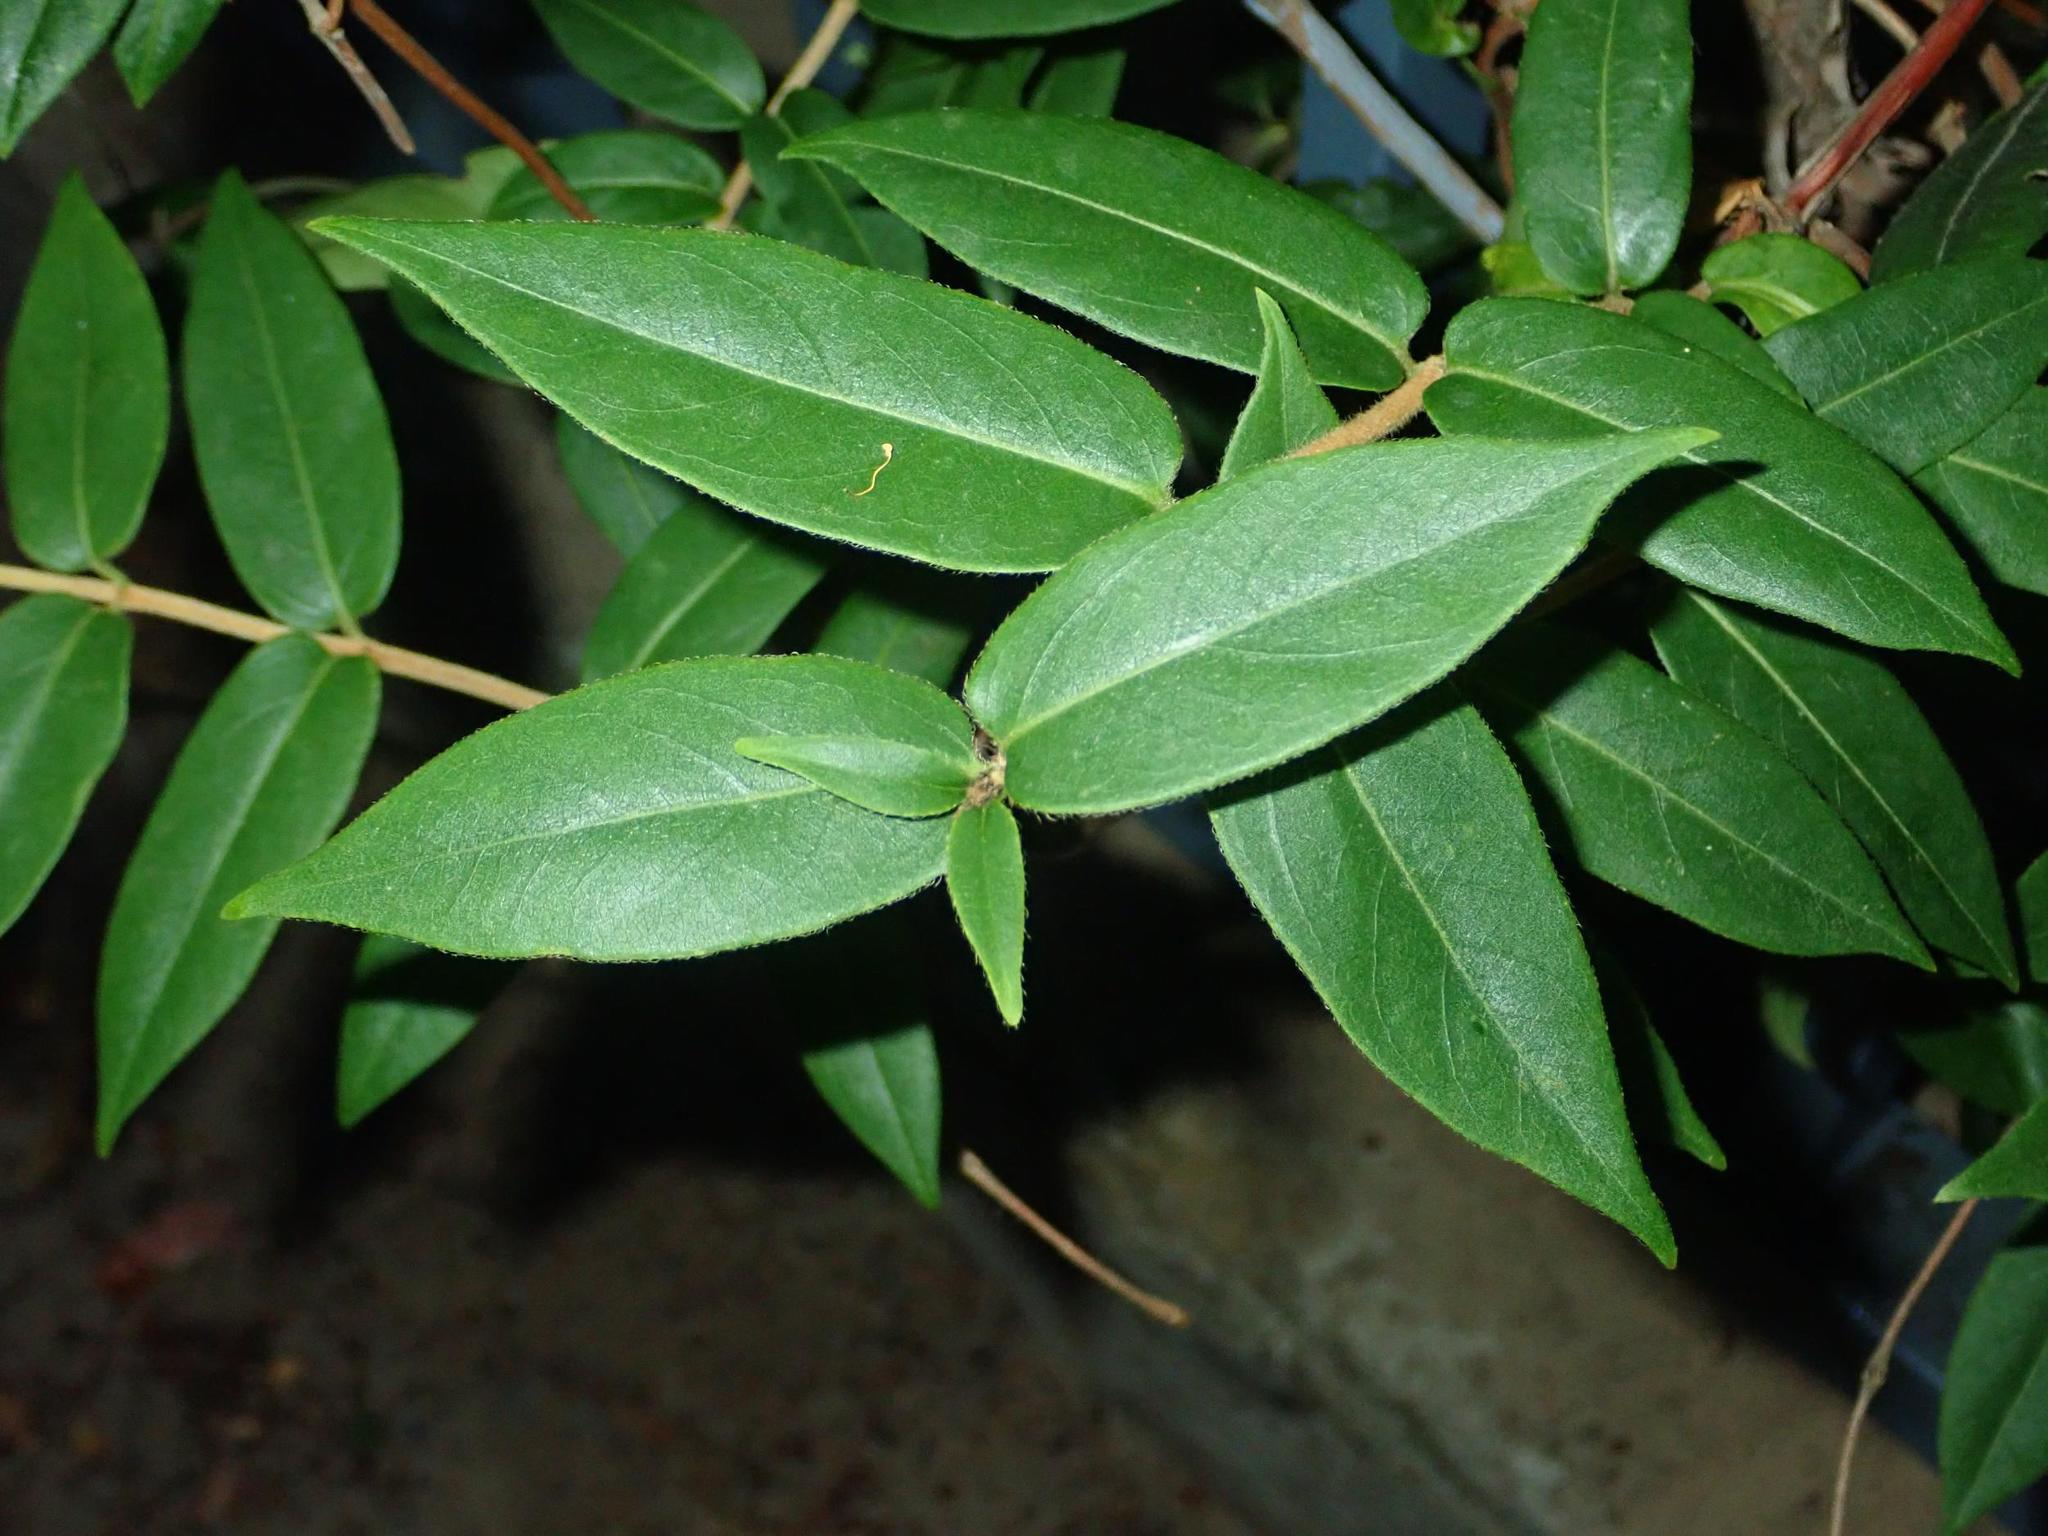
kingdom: Plantae
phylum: Tracheophyta
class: Magnoliopsida
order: Dipsacales
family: Caprifoliaceae
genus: Lonicera
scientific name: Lonicera acuminata
